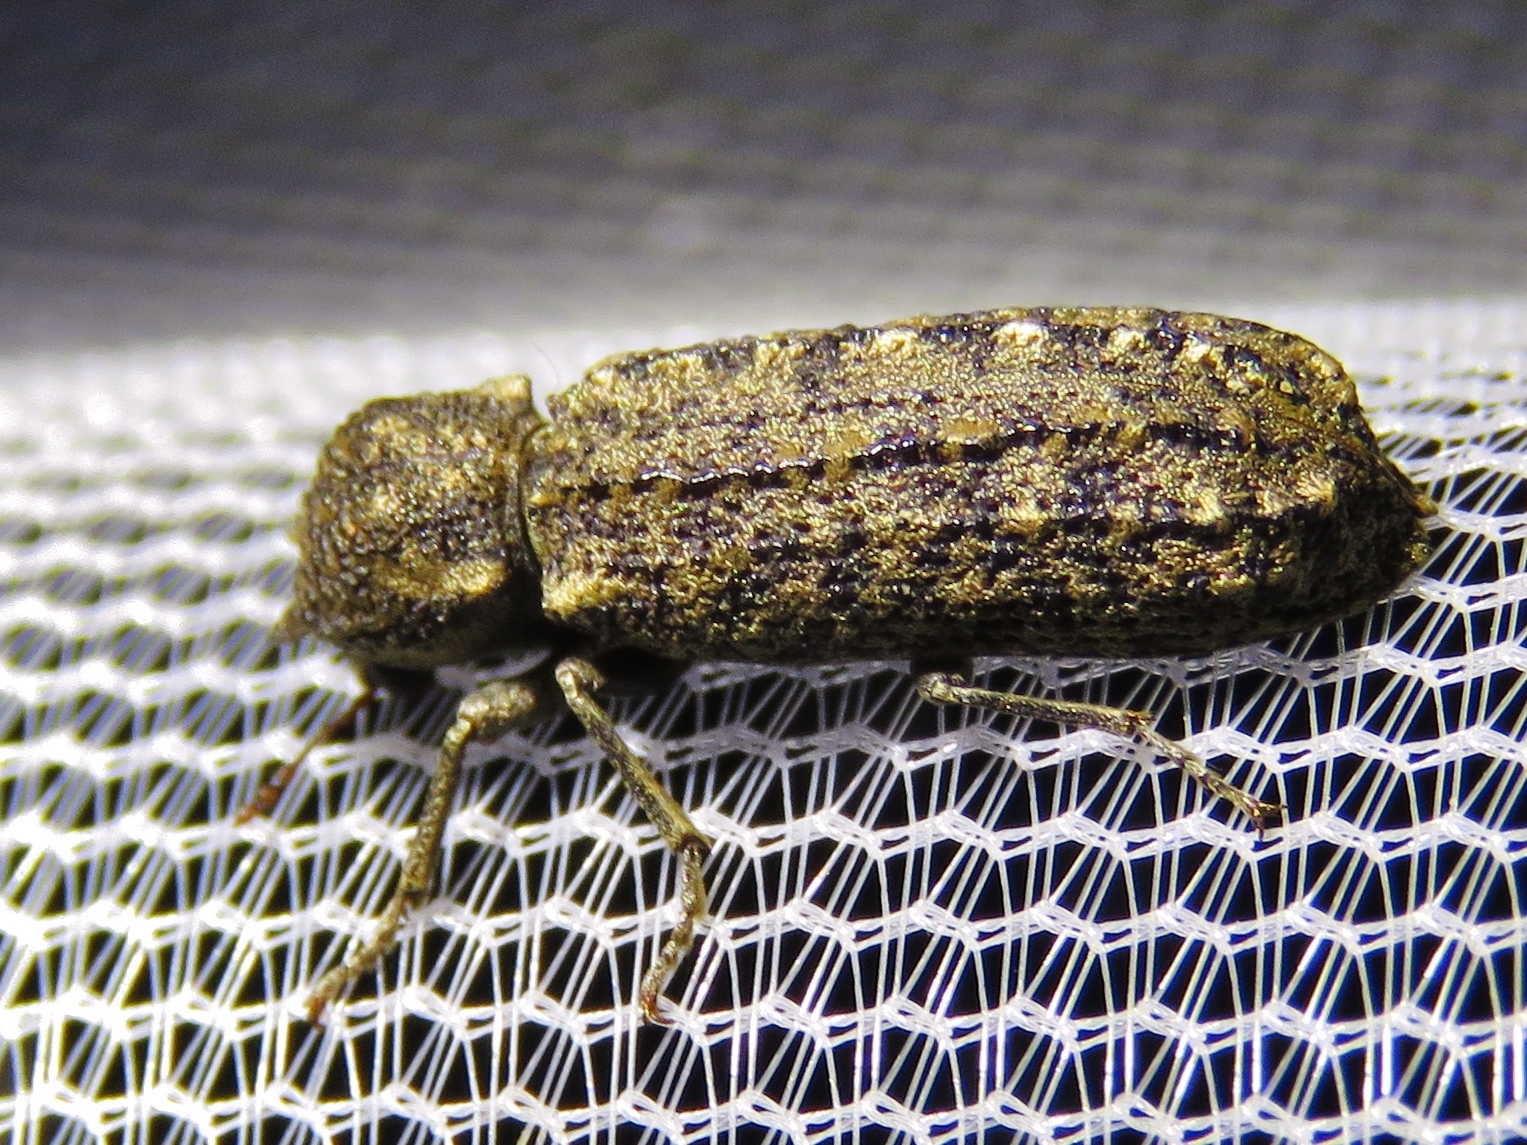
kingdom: Animalia
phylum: Arthropoda
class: Insecta
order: Coleoptera
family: Bostrichidae
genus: Lichenophanes
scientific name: Lichenophanes bicornis
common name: Two-horned powder-post beetle
